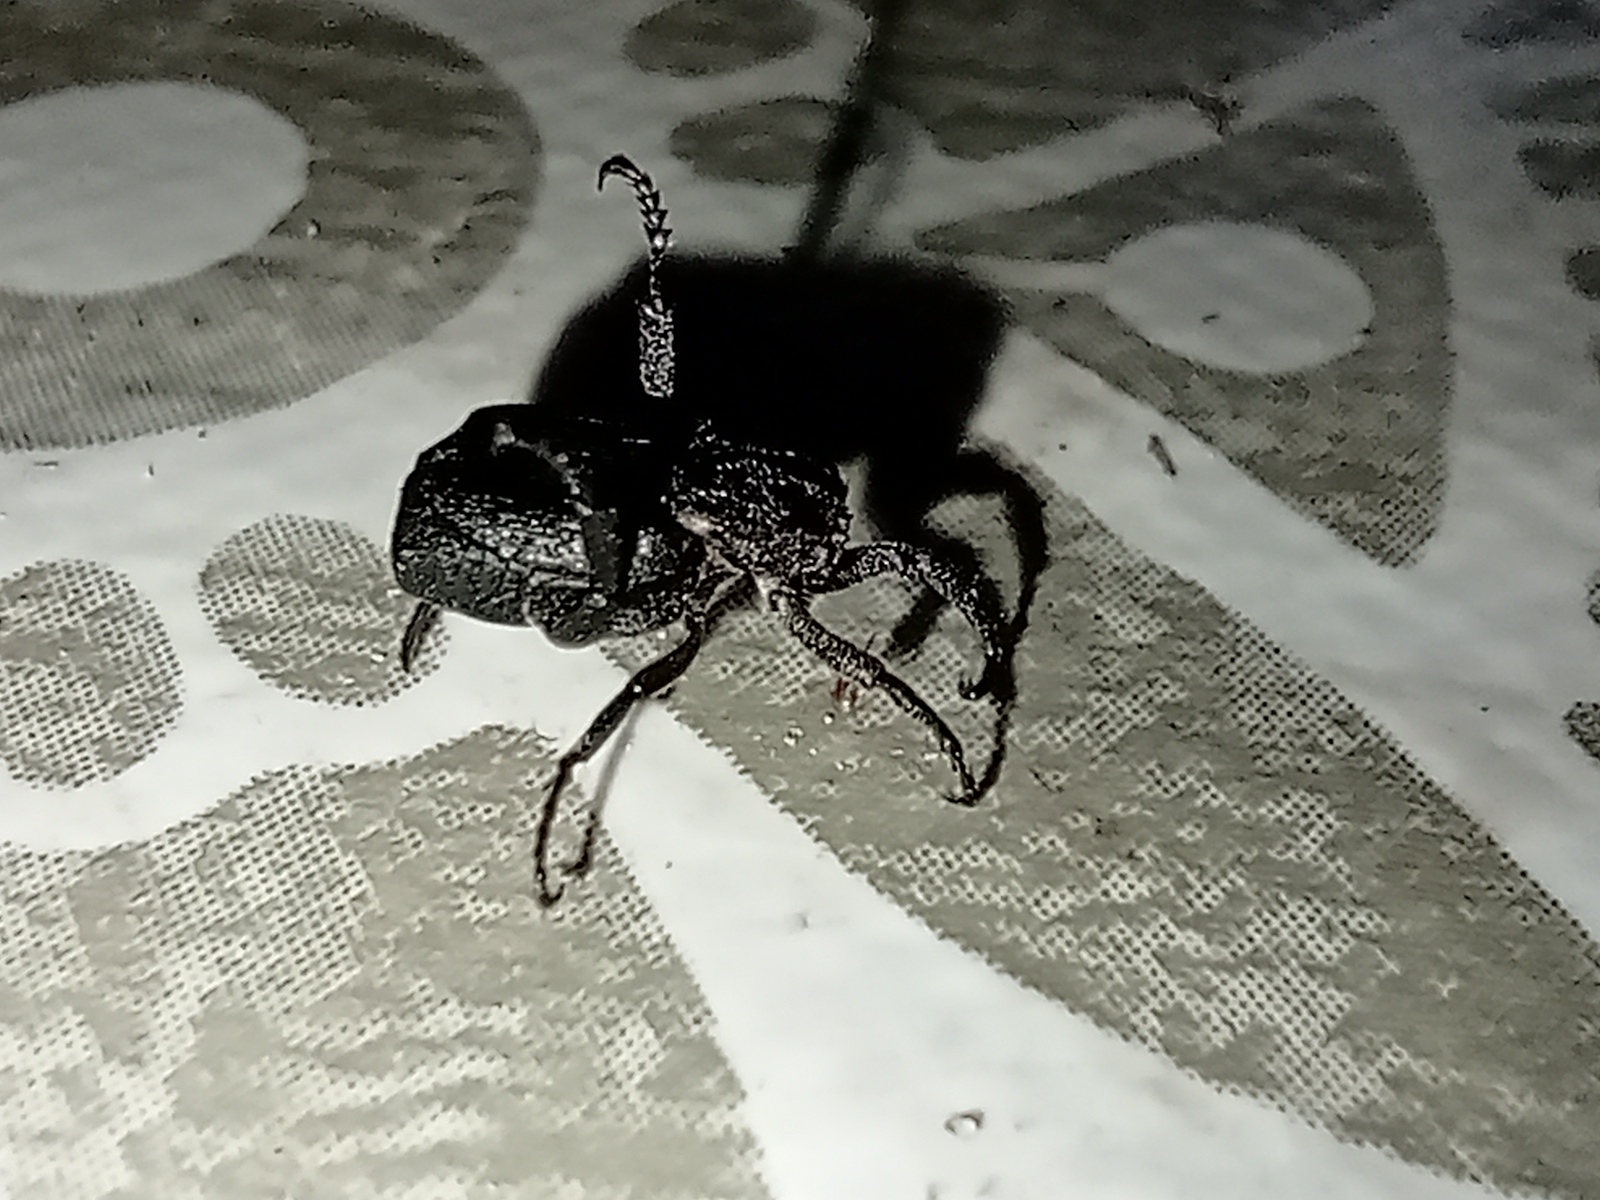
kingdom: Animalia
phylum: Arthropoda
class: Insecta
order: Coleoptera
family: Scarabaeidae
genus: Valgus
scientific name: Valgus hemipterus
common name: Bug flower chafer
